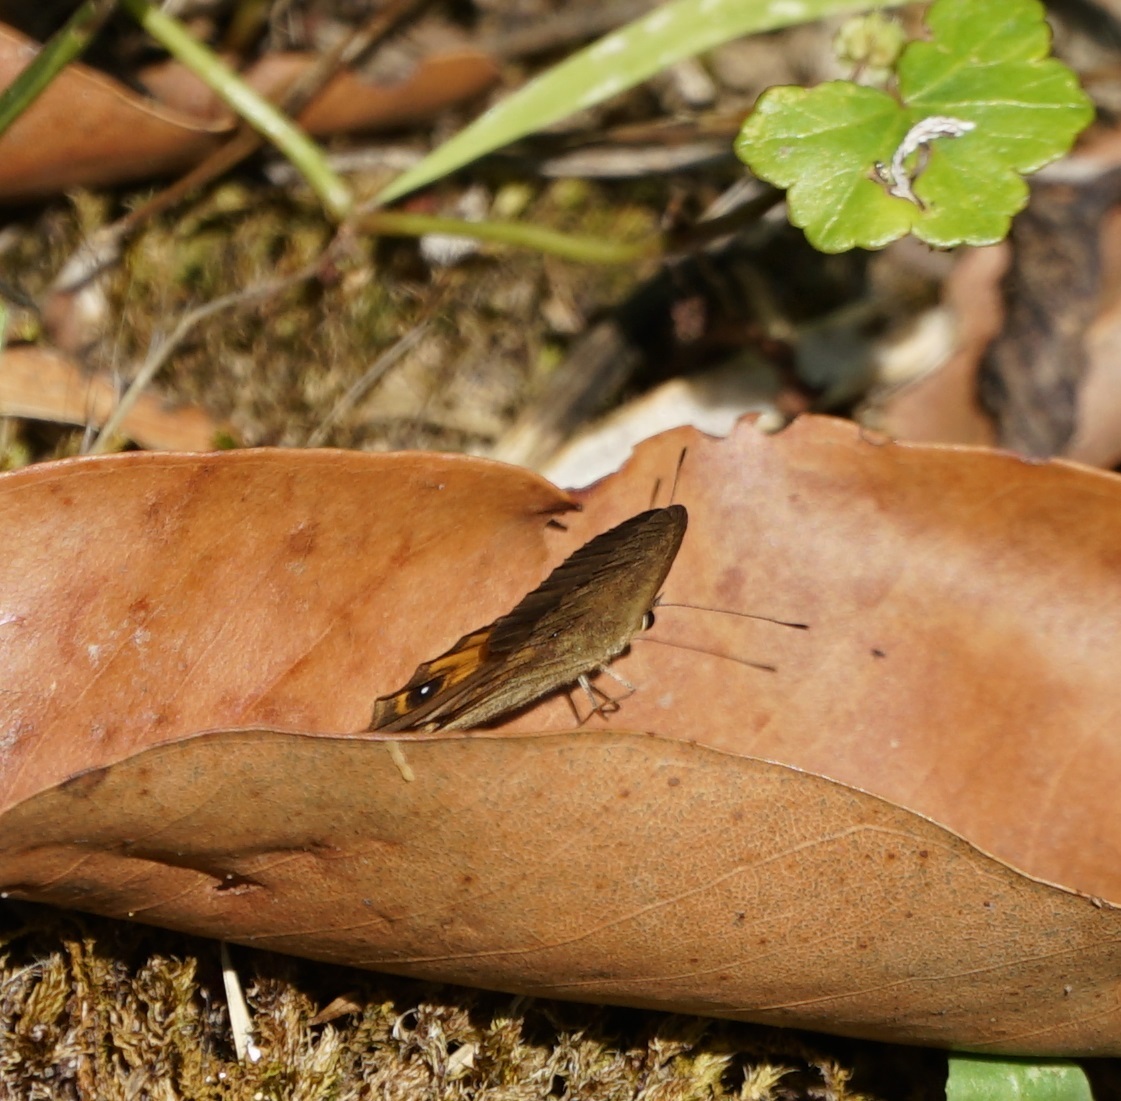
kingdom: Animalia
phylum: Arthropoda
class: Insecta
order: Lepidoptera
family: Nymphalidae
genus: Hypocysta
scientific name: Hypocysta metirius
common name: Brown ringlet
